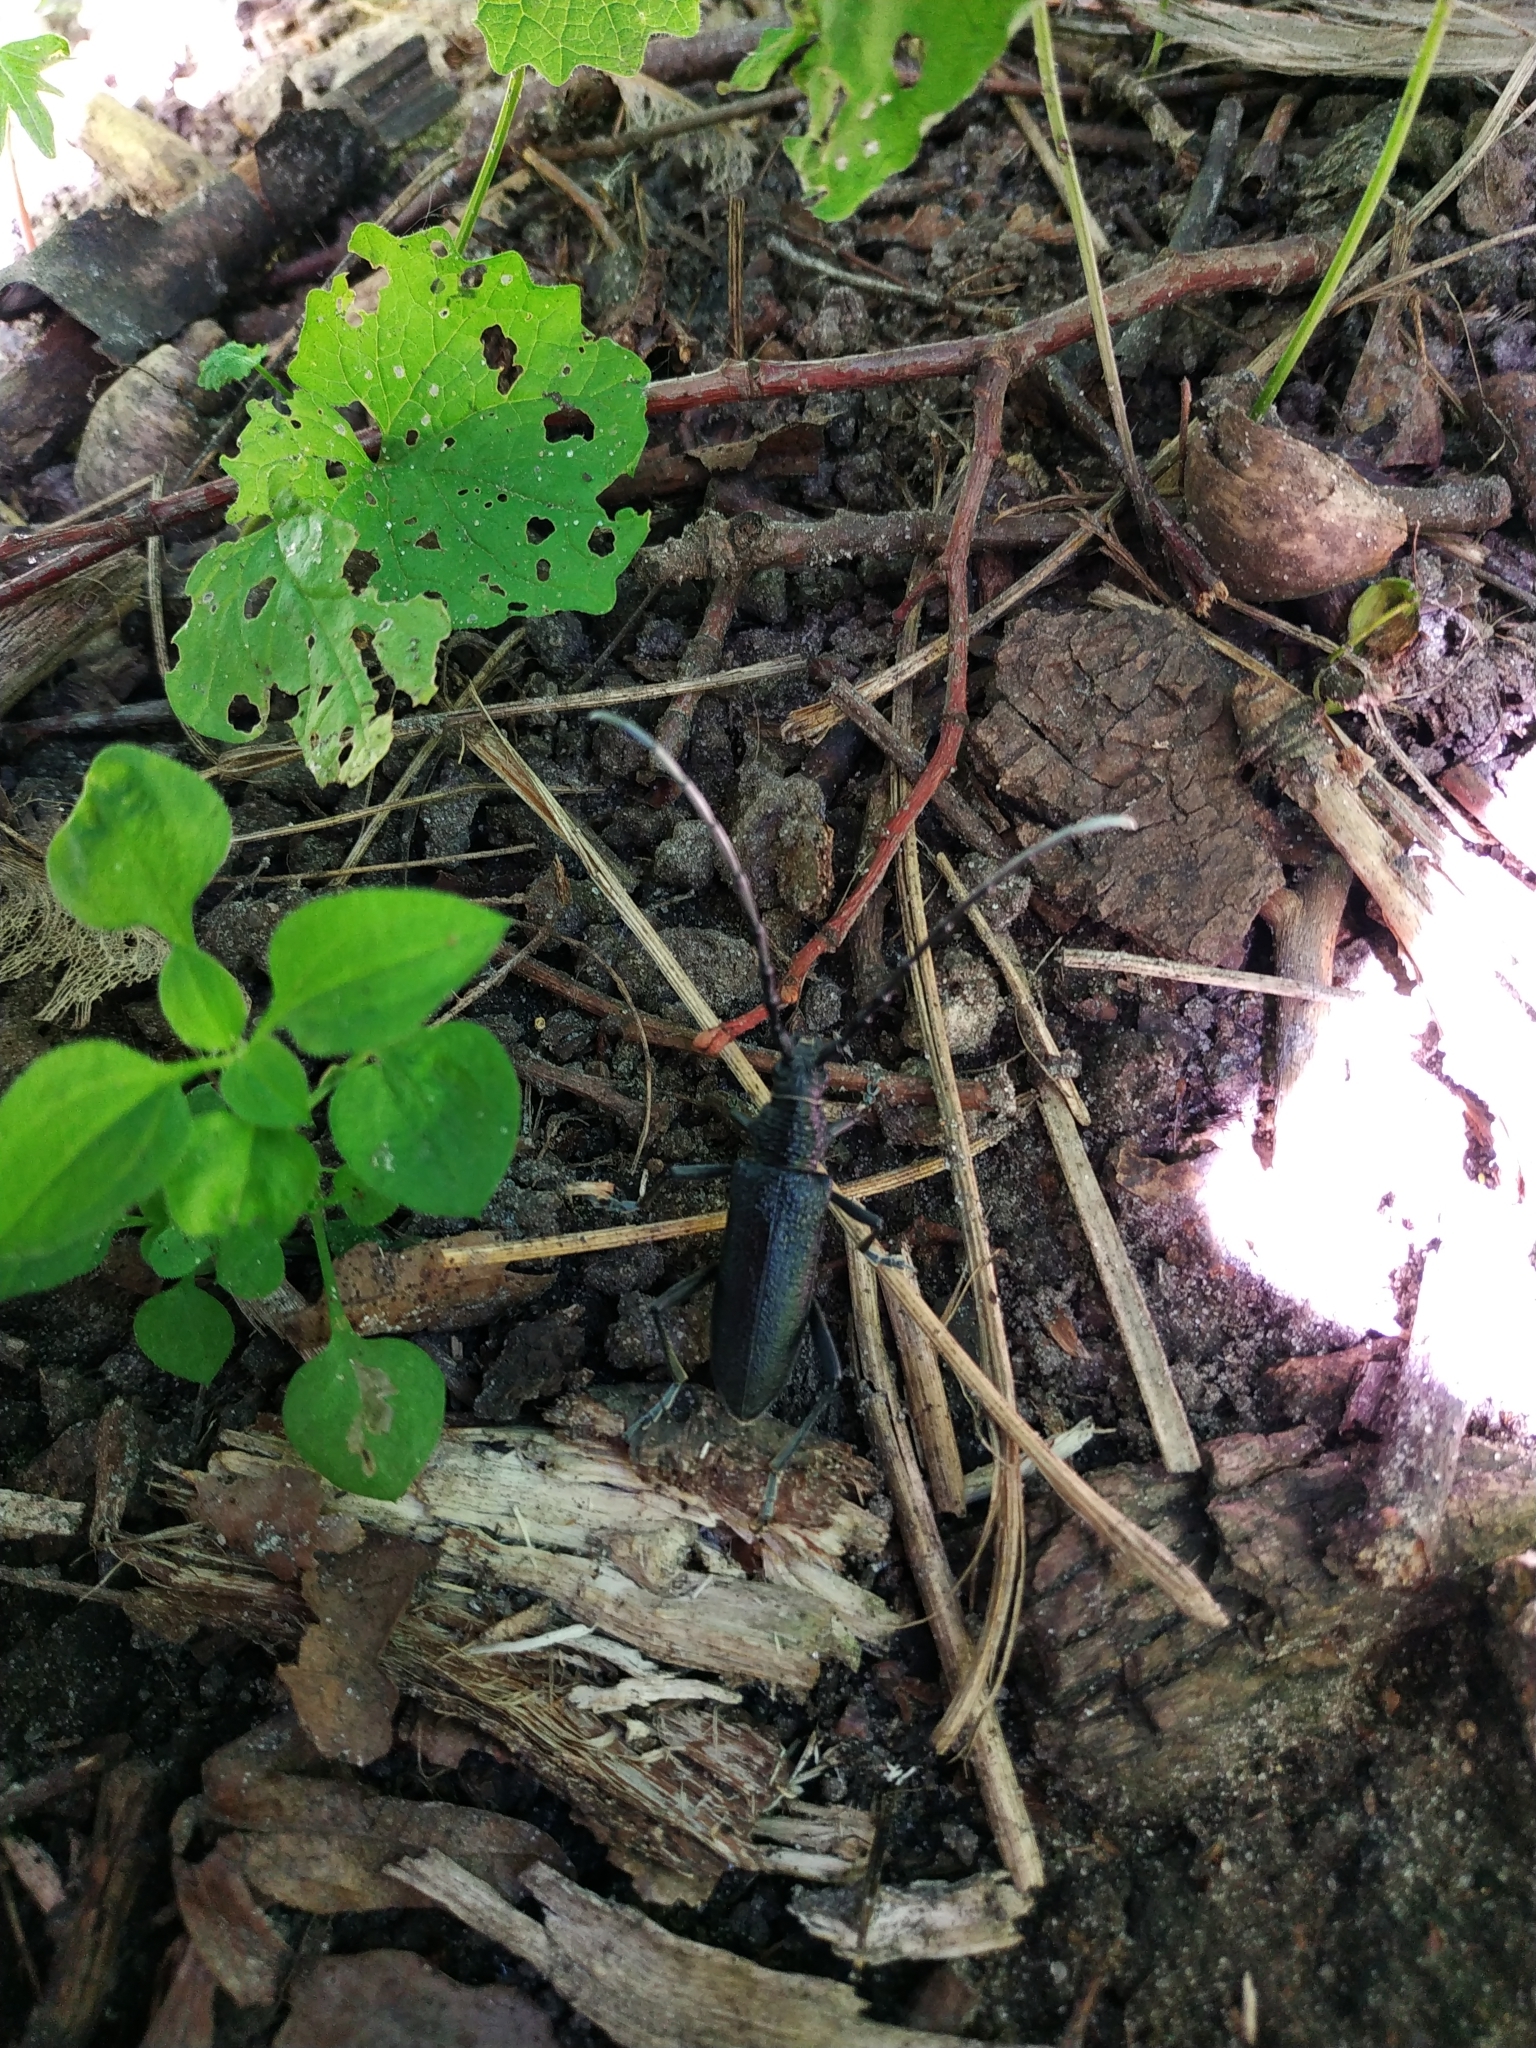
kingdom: Animalia
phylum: Arthropoda
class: Insecta
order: Coleoptera
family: Cerambycidae
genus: Cerambyx
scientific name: Cerambyx scopolii
